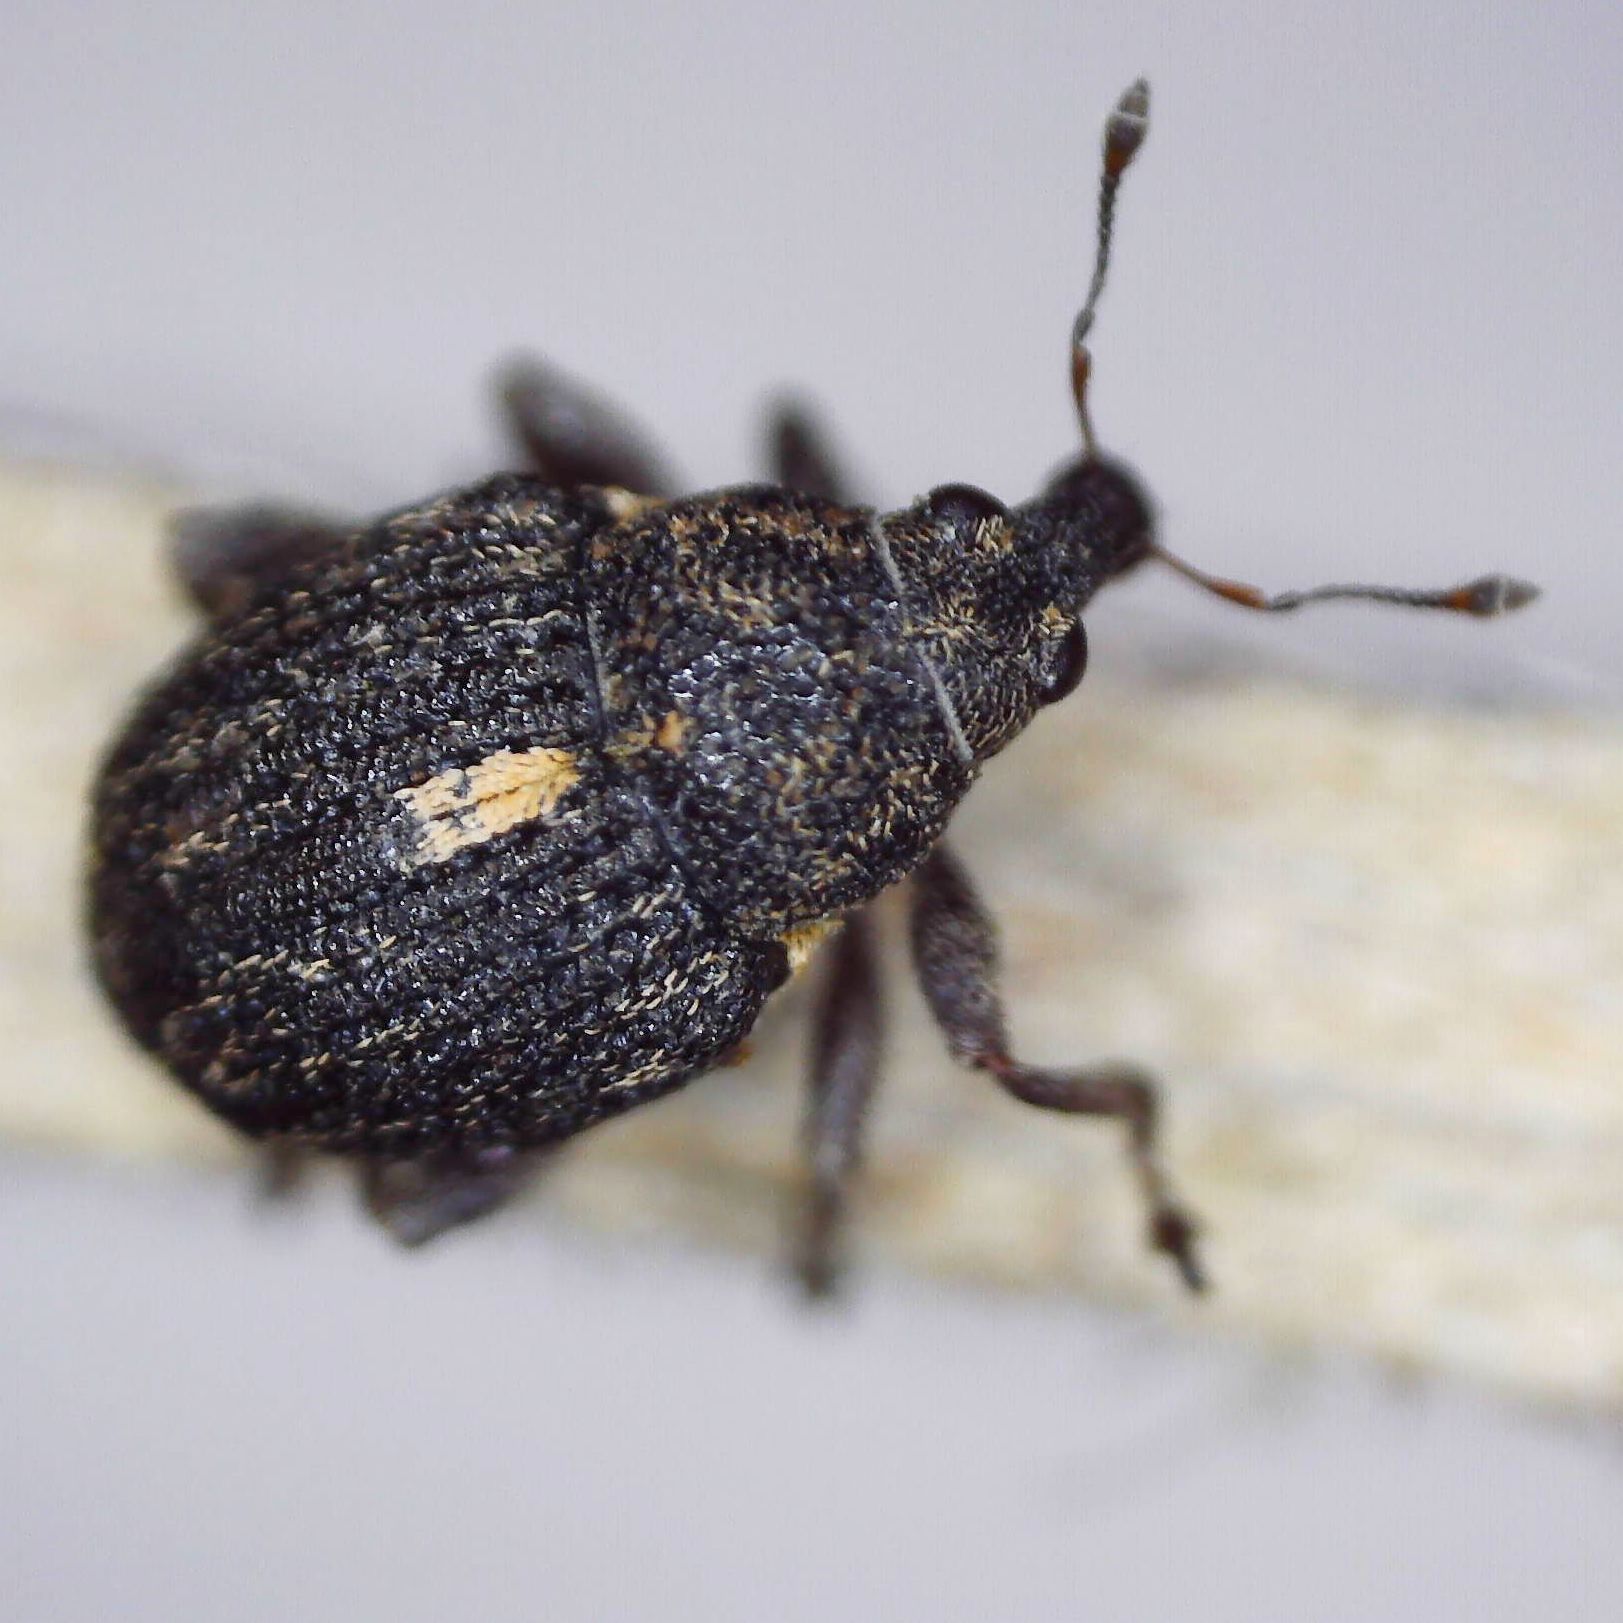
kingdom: Animalia
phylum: Arthropoda
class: Insecta
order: Coleoptera
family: Curculionidae
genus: Rhinoncus
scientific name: Rhinoncus leucostigma
